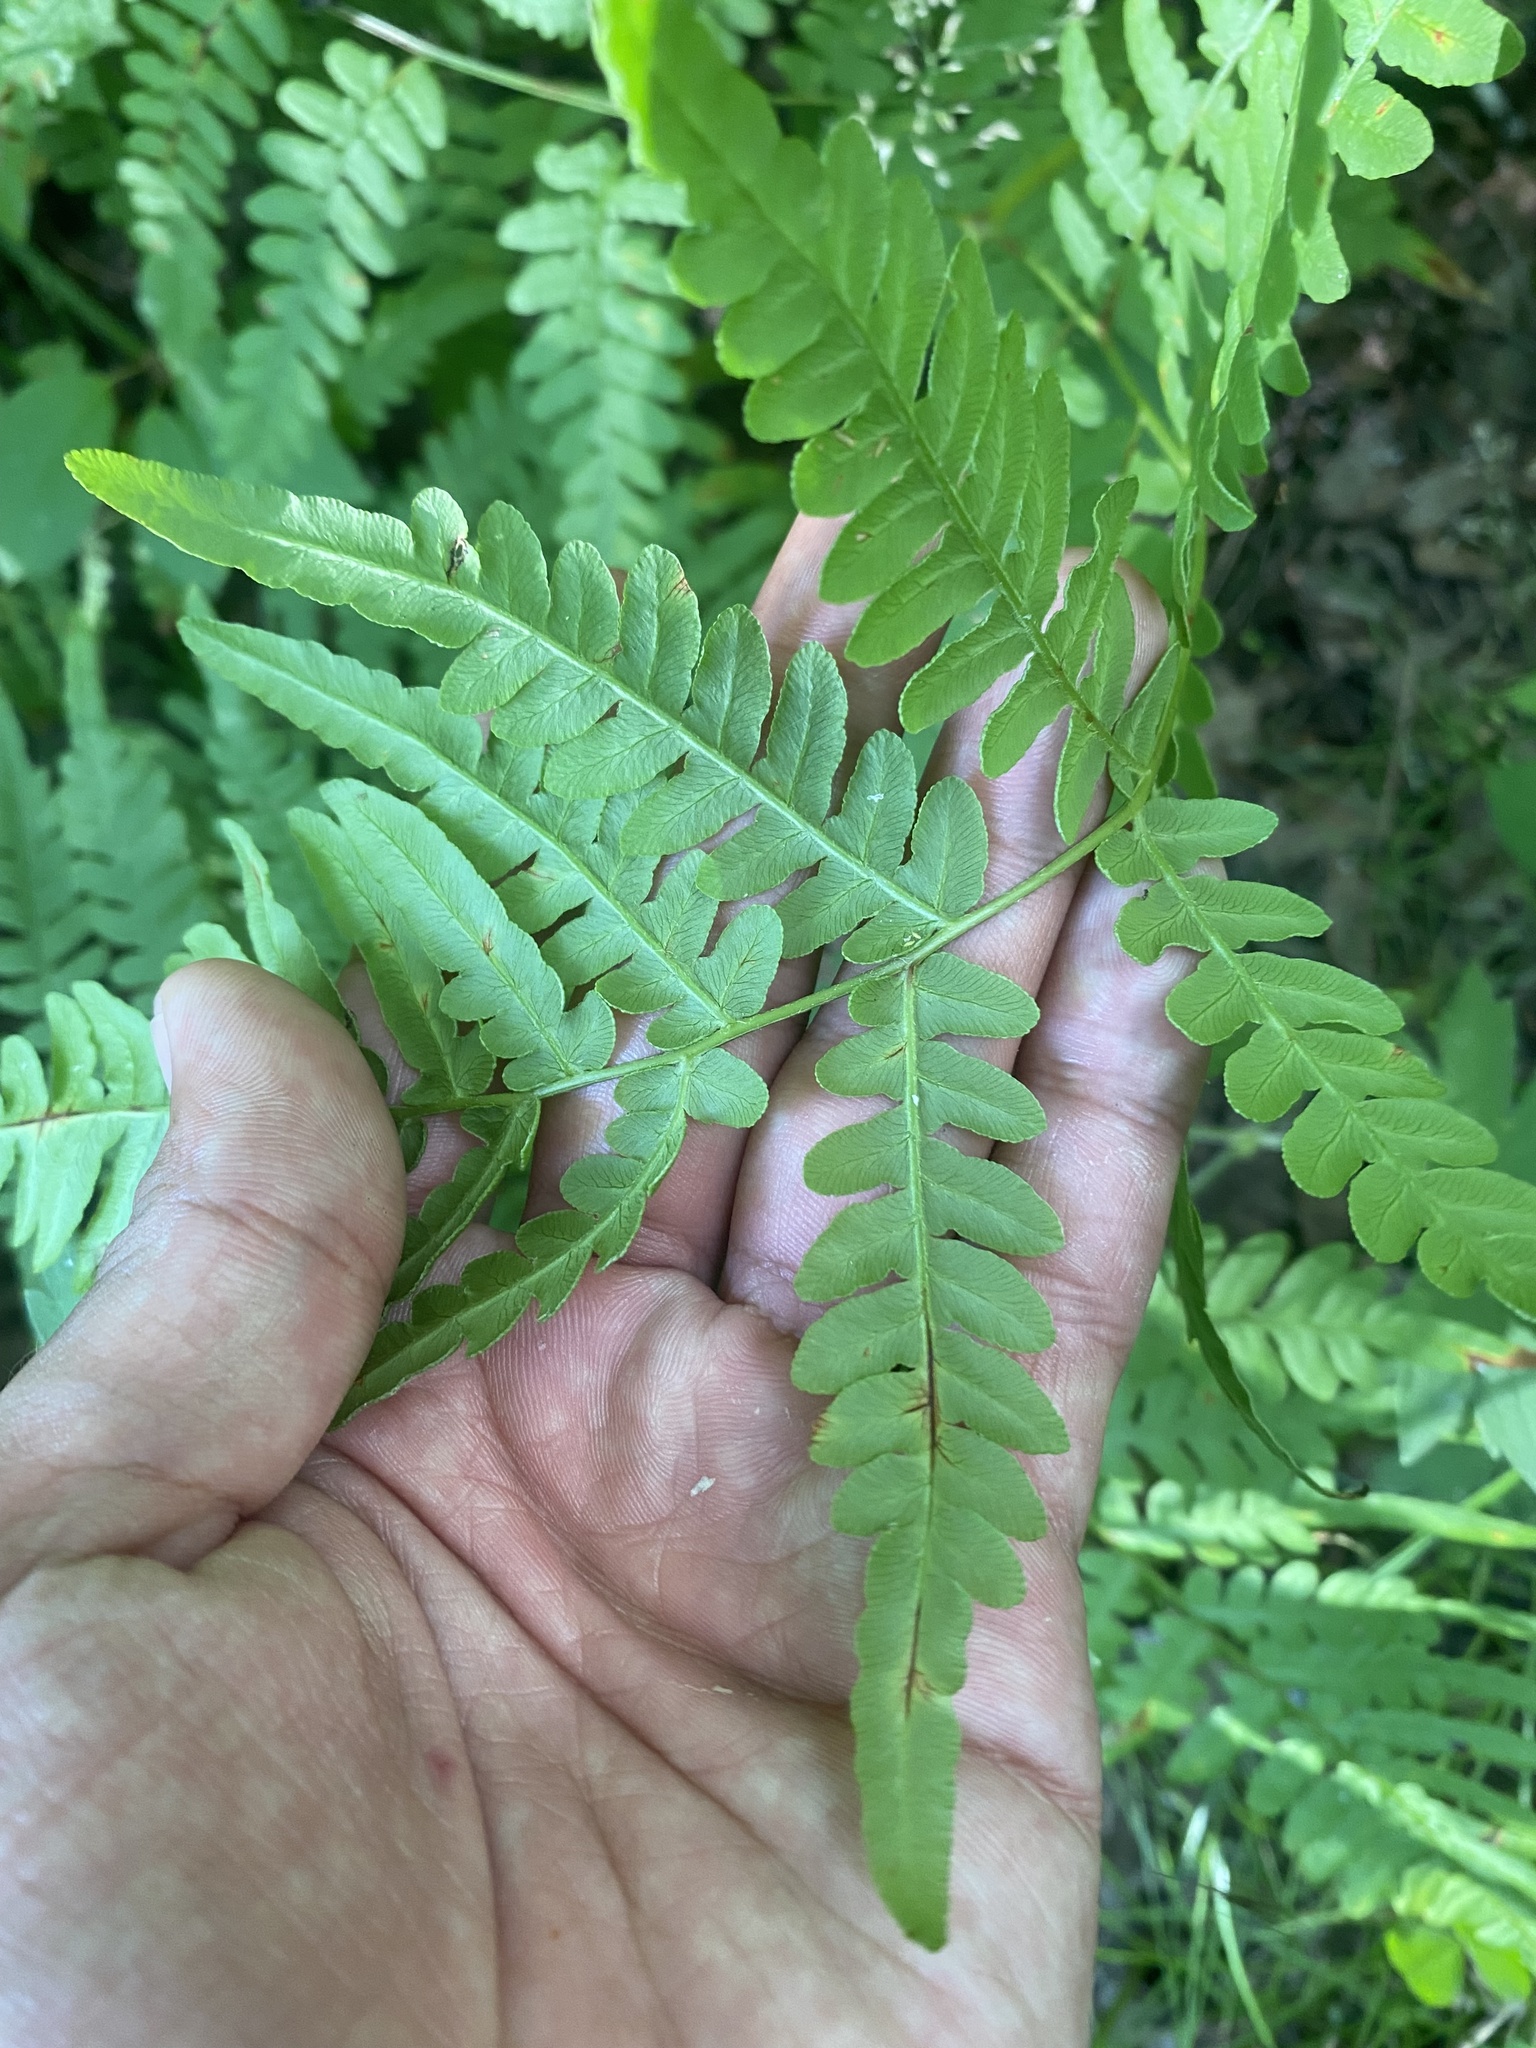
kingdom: Plantae
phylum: Tracheophyta
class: Polypodiopsida
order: Polypodiales
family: Dennstaedtiaceae
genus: Pteridium
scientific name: Pteridium aquilinum
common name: Bracken
